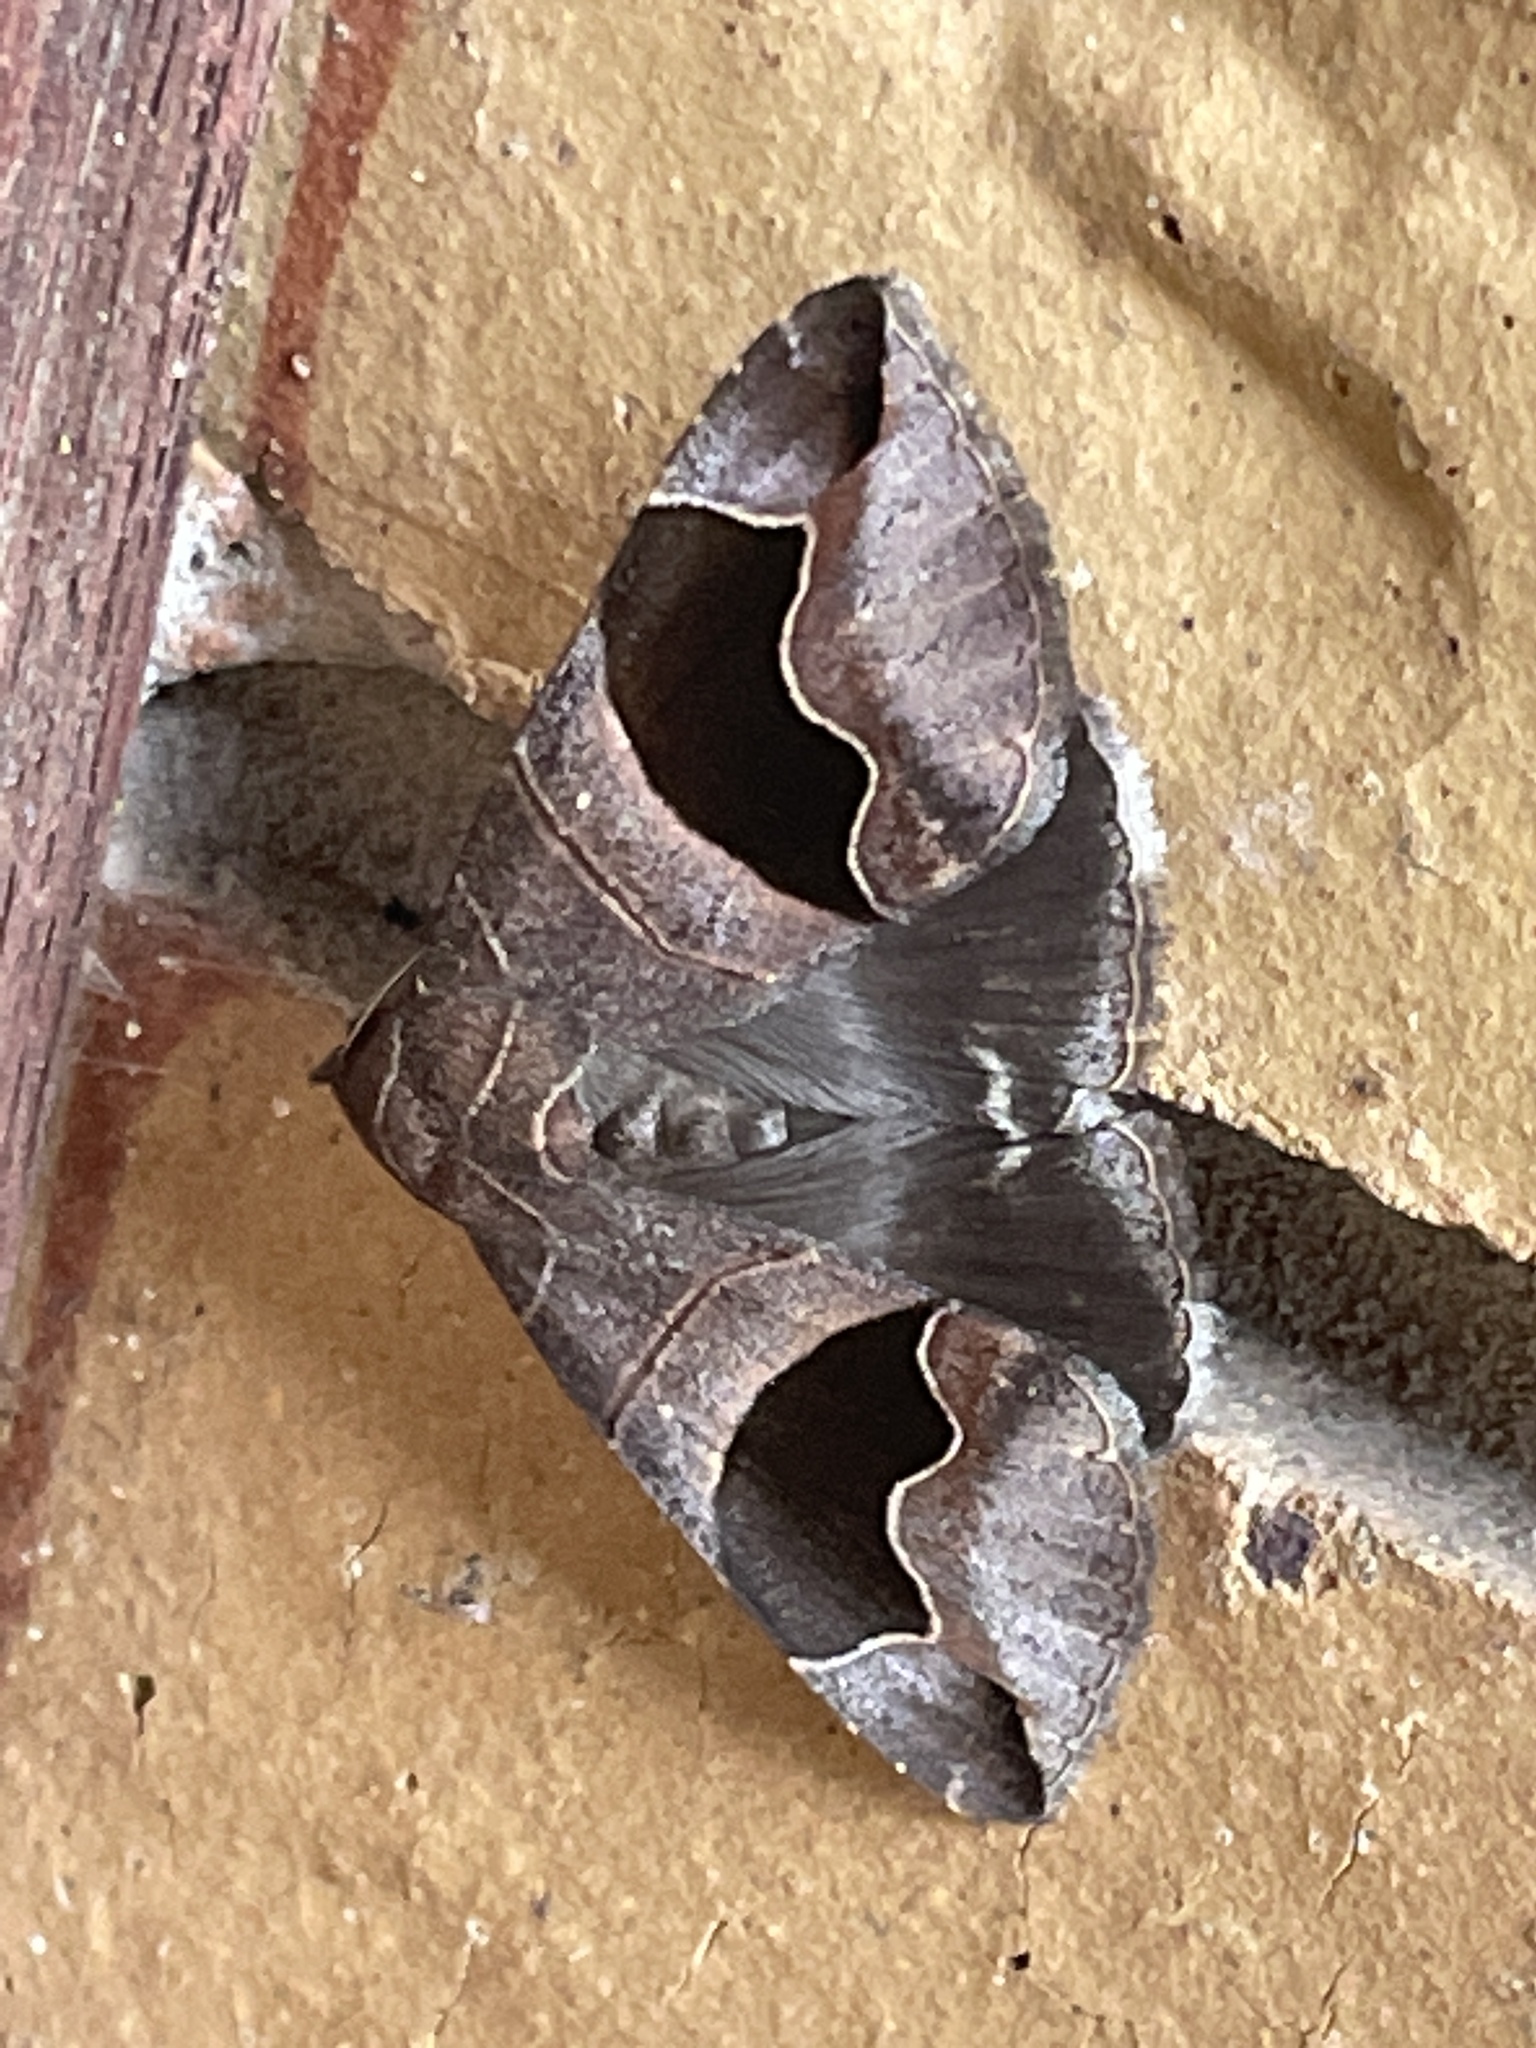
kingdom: Animalia
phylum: Arthropoda
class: Insecta
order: Lepidoptera
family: Erebidae
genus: Bastilla
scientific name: Bastilla solomonensis
